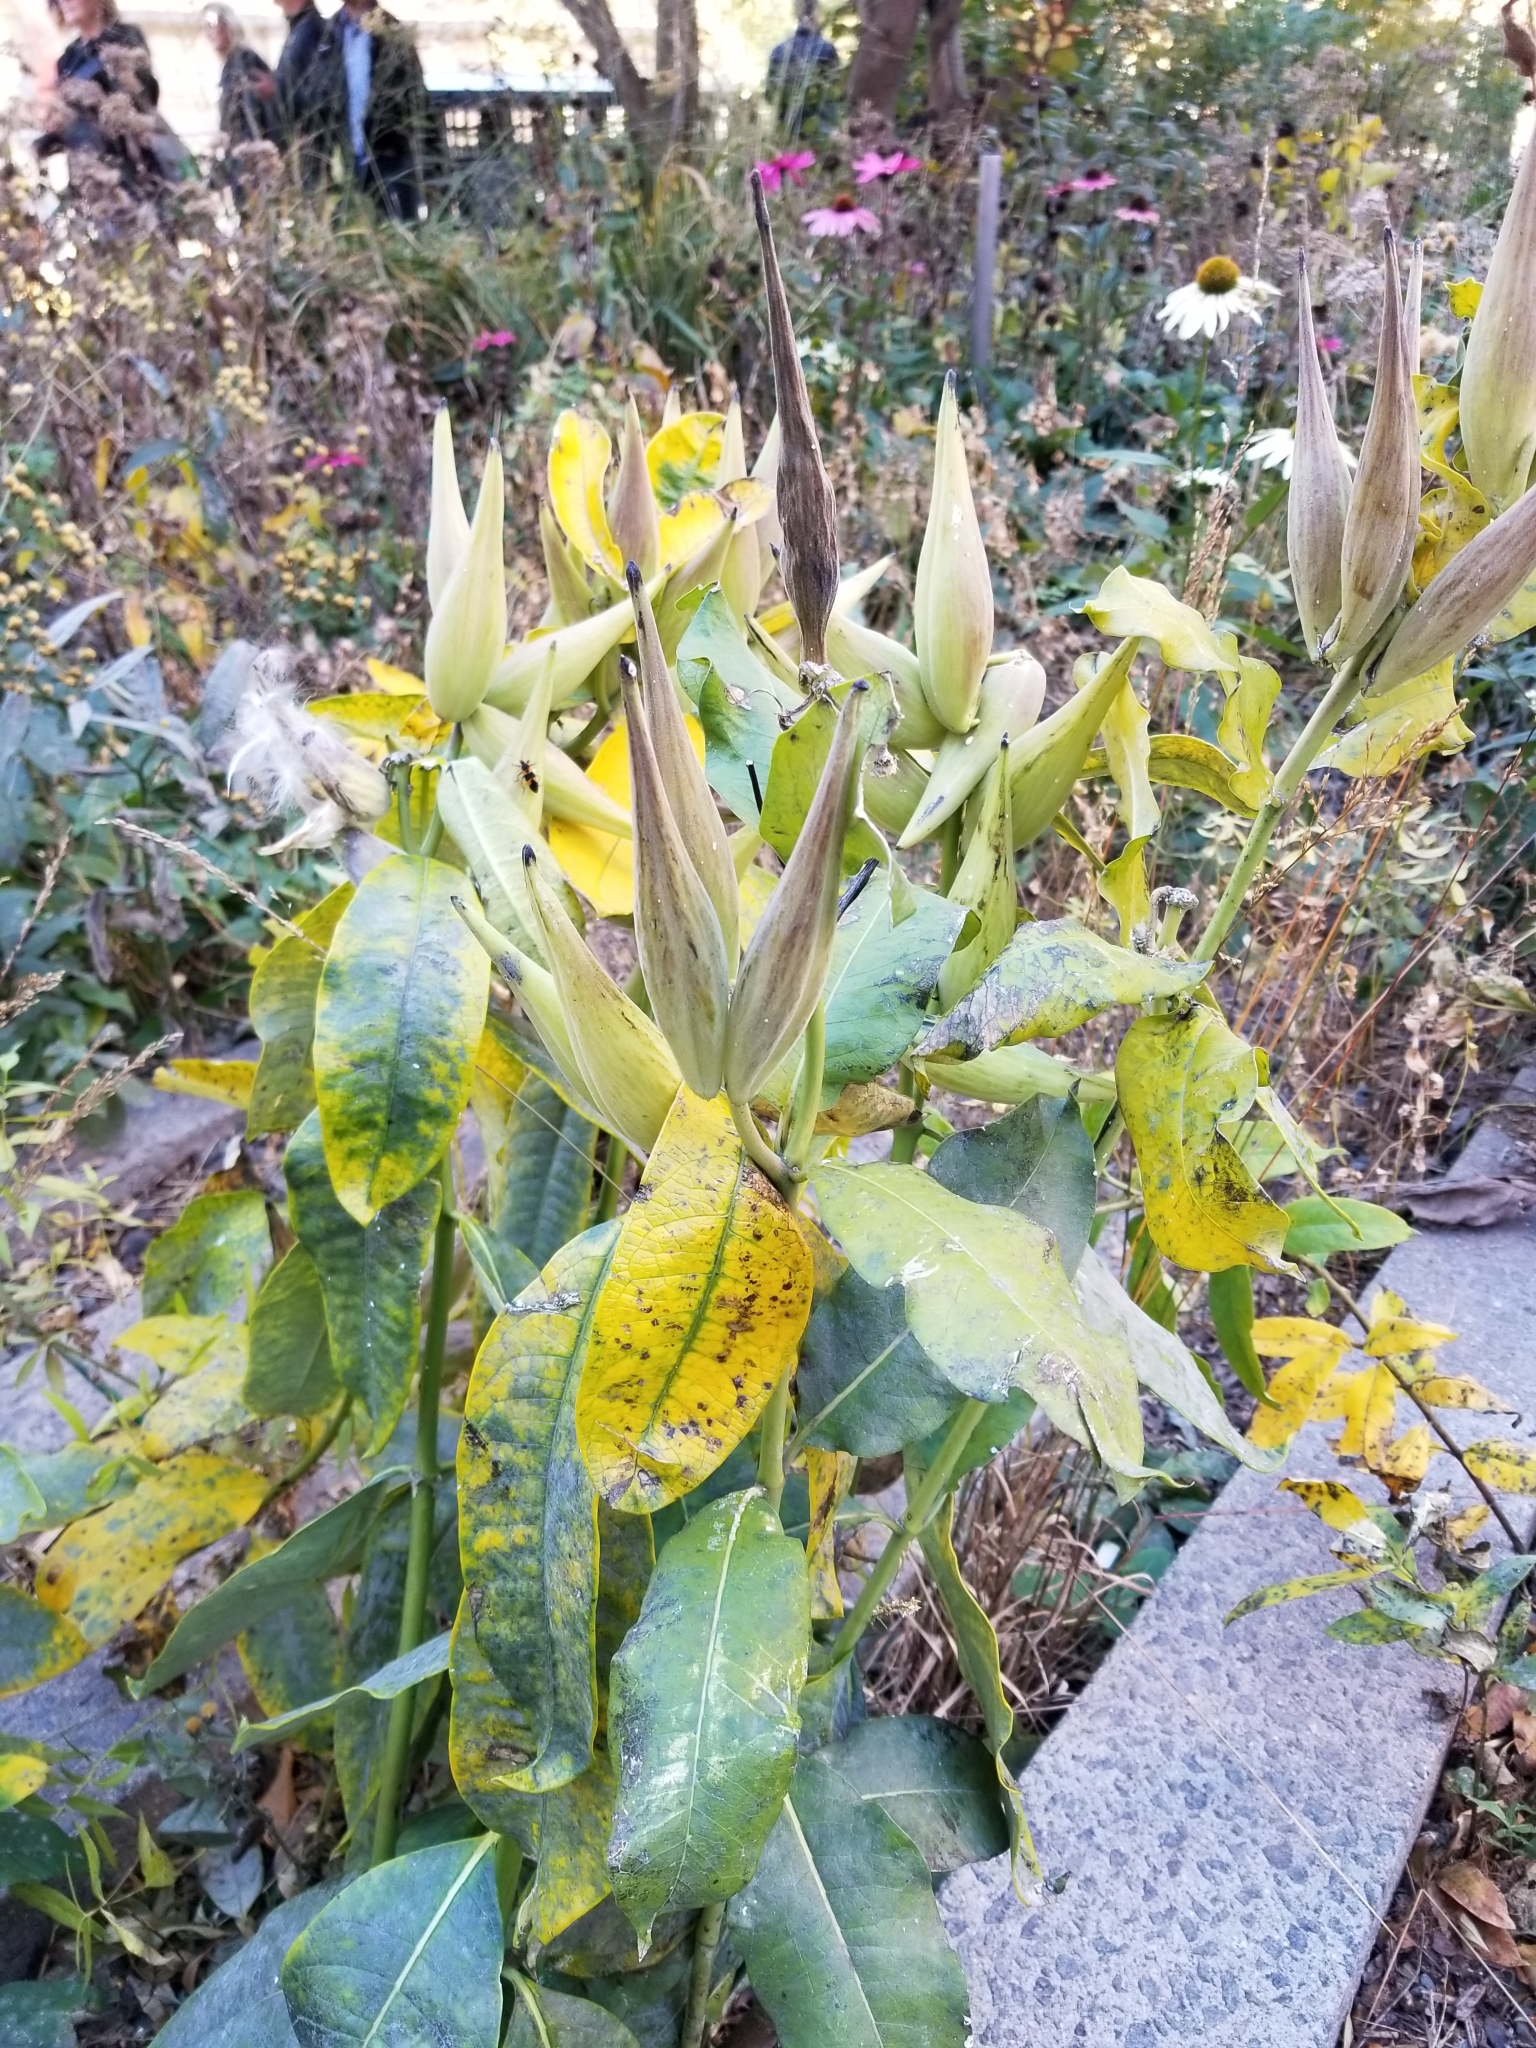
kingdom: Plantae
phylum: Tracheophyta
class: Magnoliopsida
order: Gentianales
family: Apocynaceae
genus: Asclepias
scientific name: Asclepias purpurascens
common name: Purple milkweed
